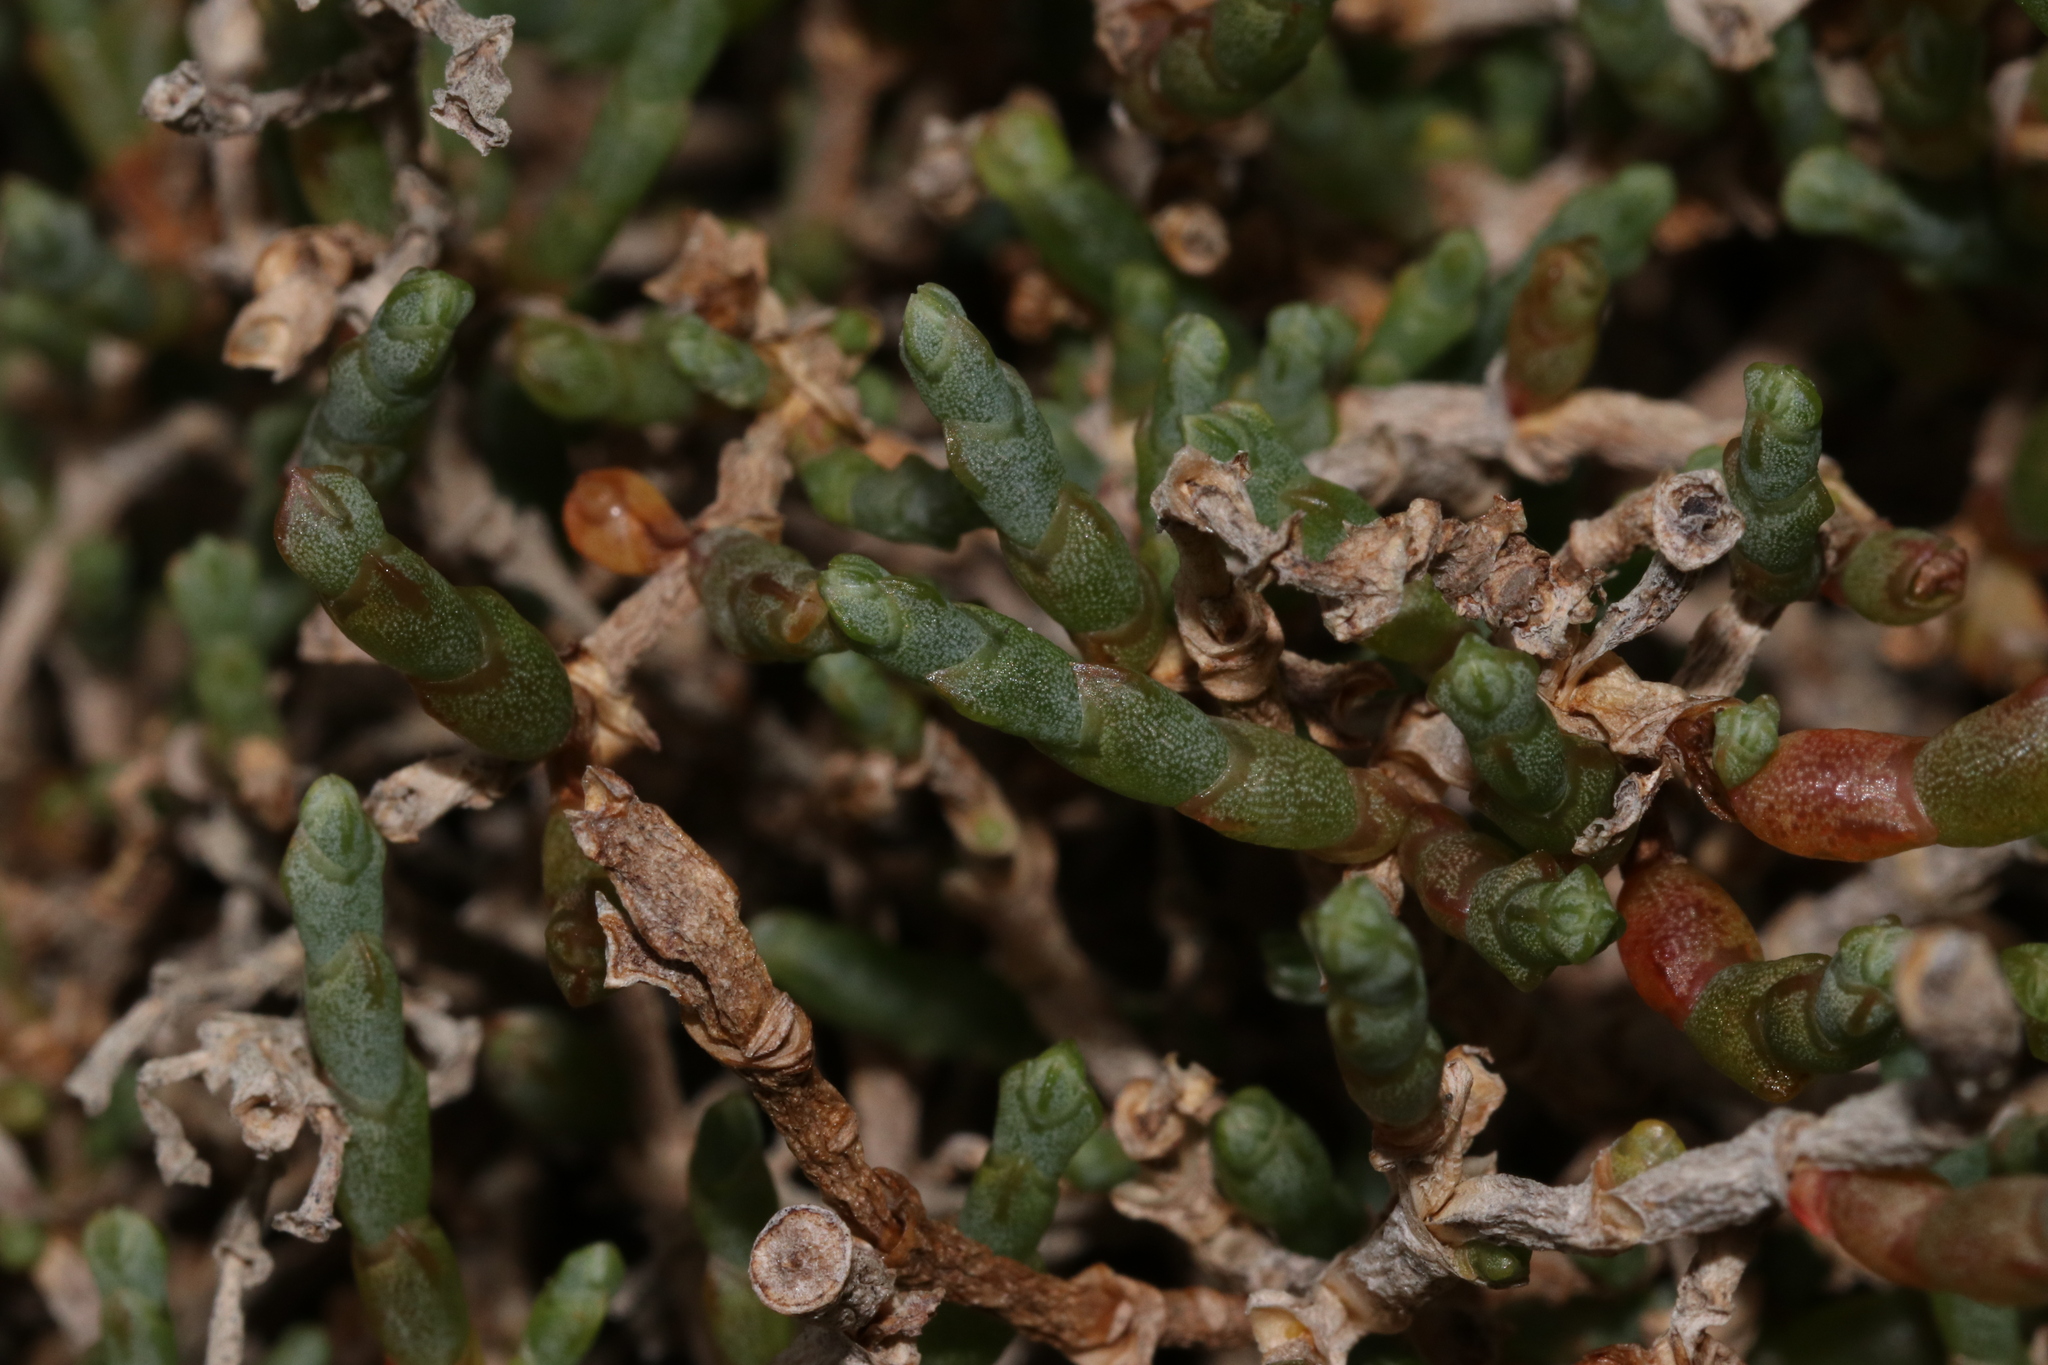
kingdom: Plantae
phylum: Tracheophyta
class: Magnoliopsida
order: Caryophyllales
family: Amaranthaceae
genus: Salicornia
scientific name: Salicornia quinqueflora
